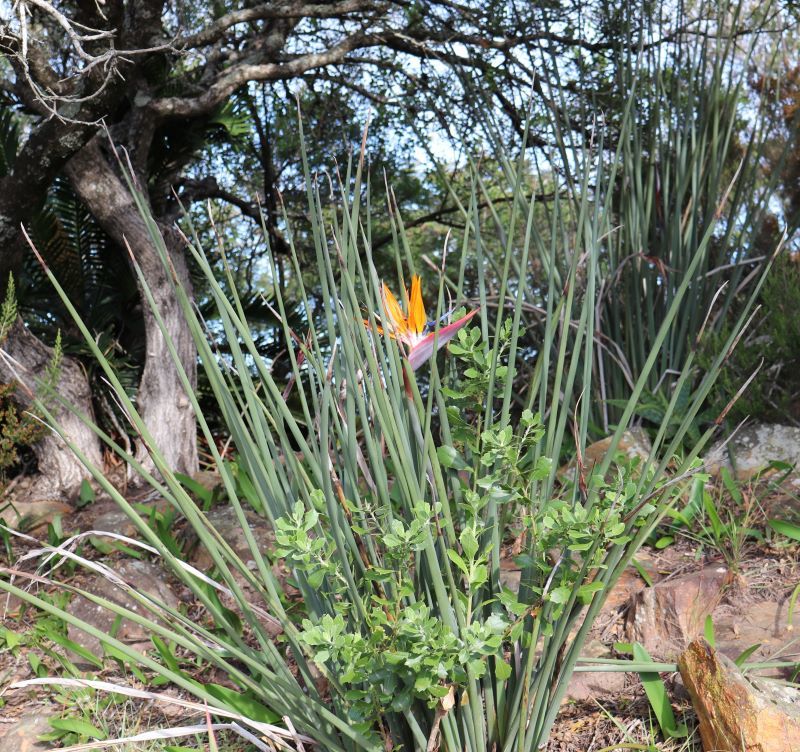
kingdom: Plantae
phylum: Tracheophyta
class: Liliopsida
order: Zingiberales
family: Strelitziaceae
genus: Strelitzia
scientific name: Strelitzia juncea
